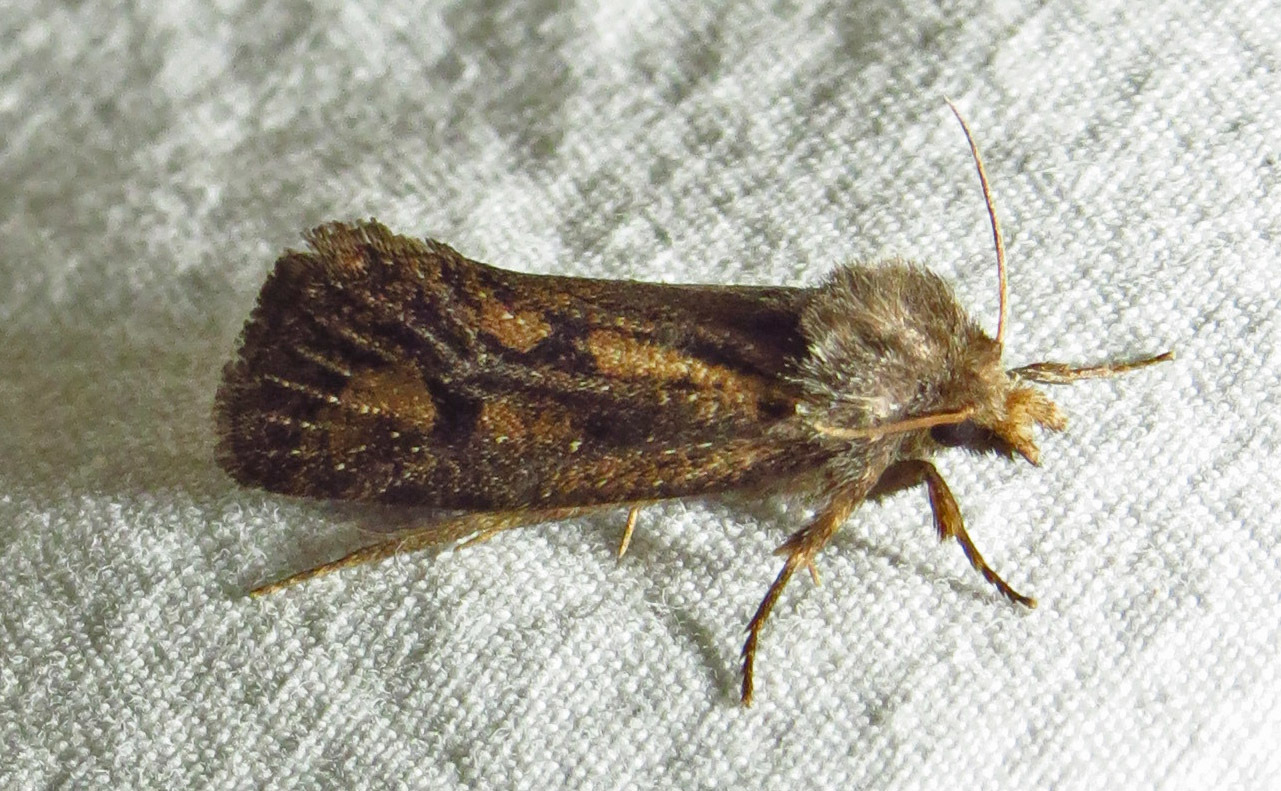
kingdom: Animalia
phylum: Arthropoda
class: Insecta
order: Lepidoptera
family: Tineidae
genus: Acrolophus
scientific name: Acrolophus popeanella
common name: Clemens' grass tubeworm moth
